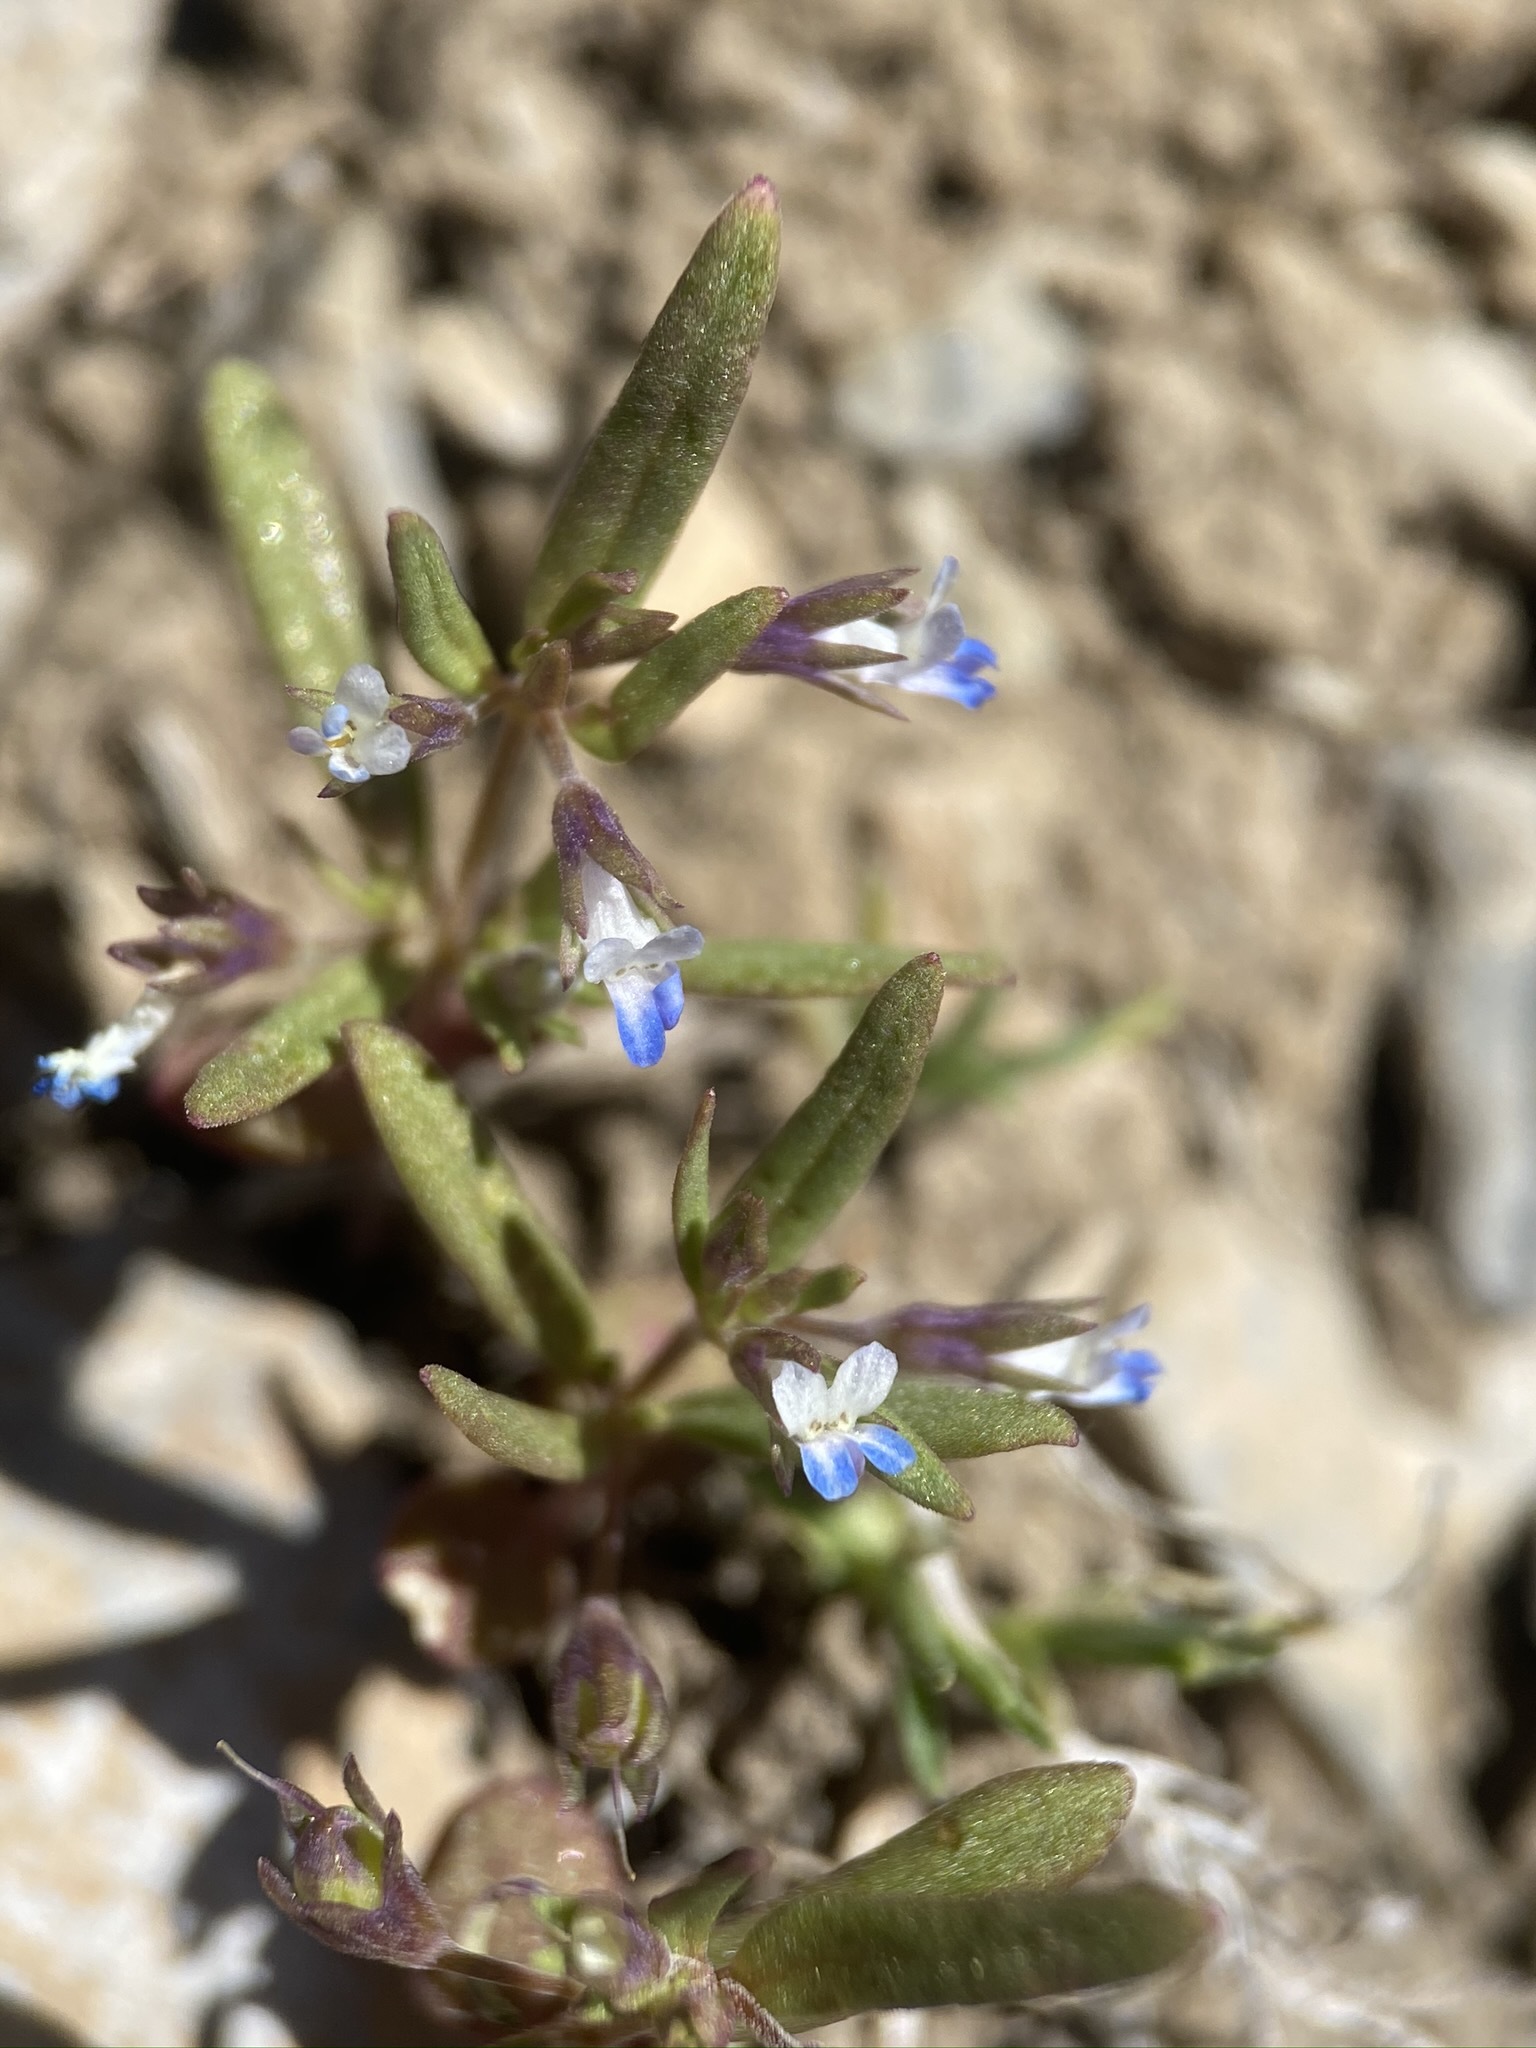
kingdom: Plantae
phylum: Tracheophyta
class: Magnoliopsida
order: Lamiales
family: Plantaginaceae
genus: Collinsia
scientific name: Collinsia parviflora
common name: Blue-lips
